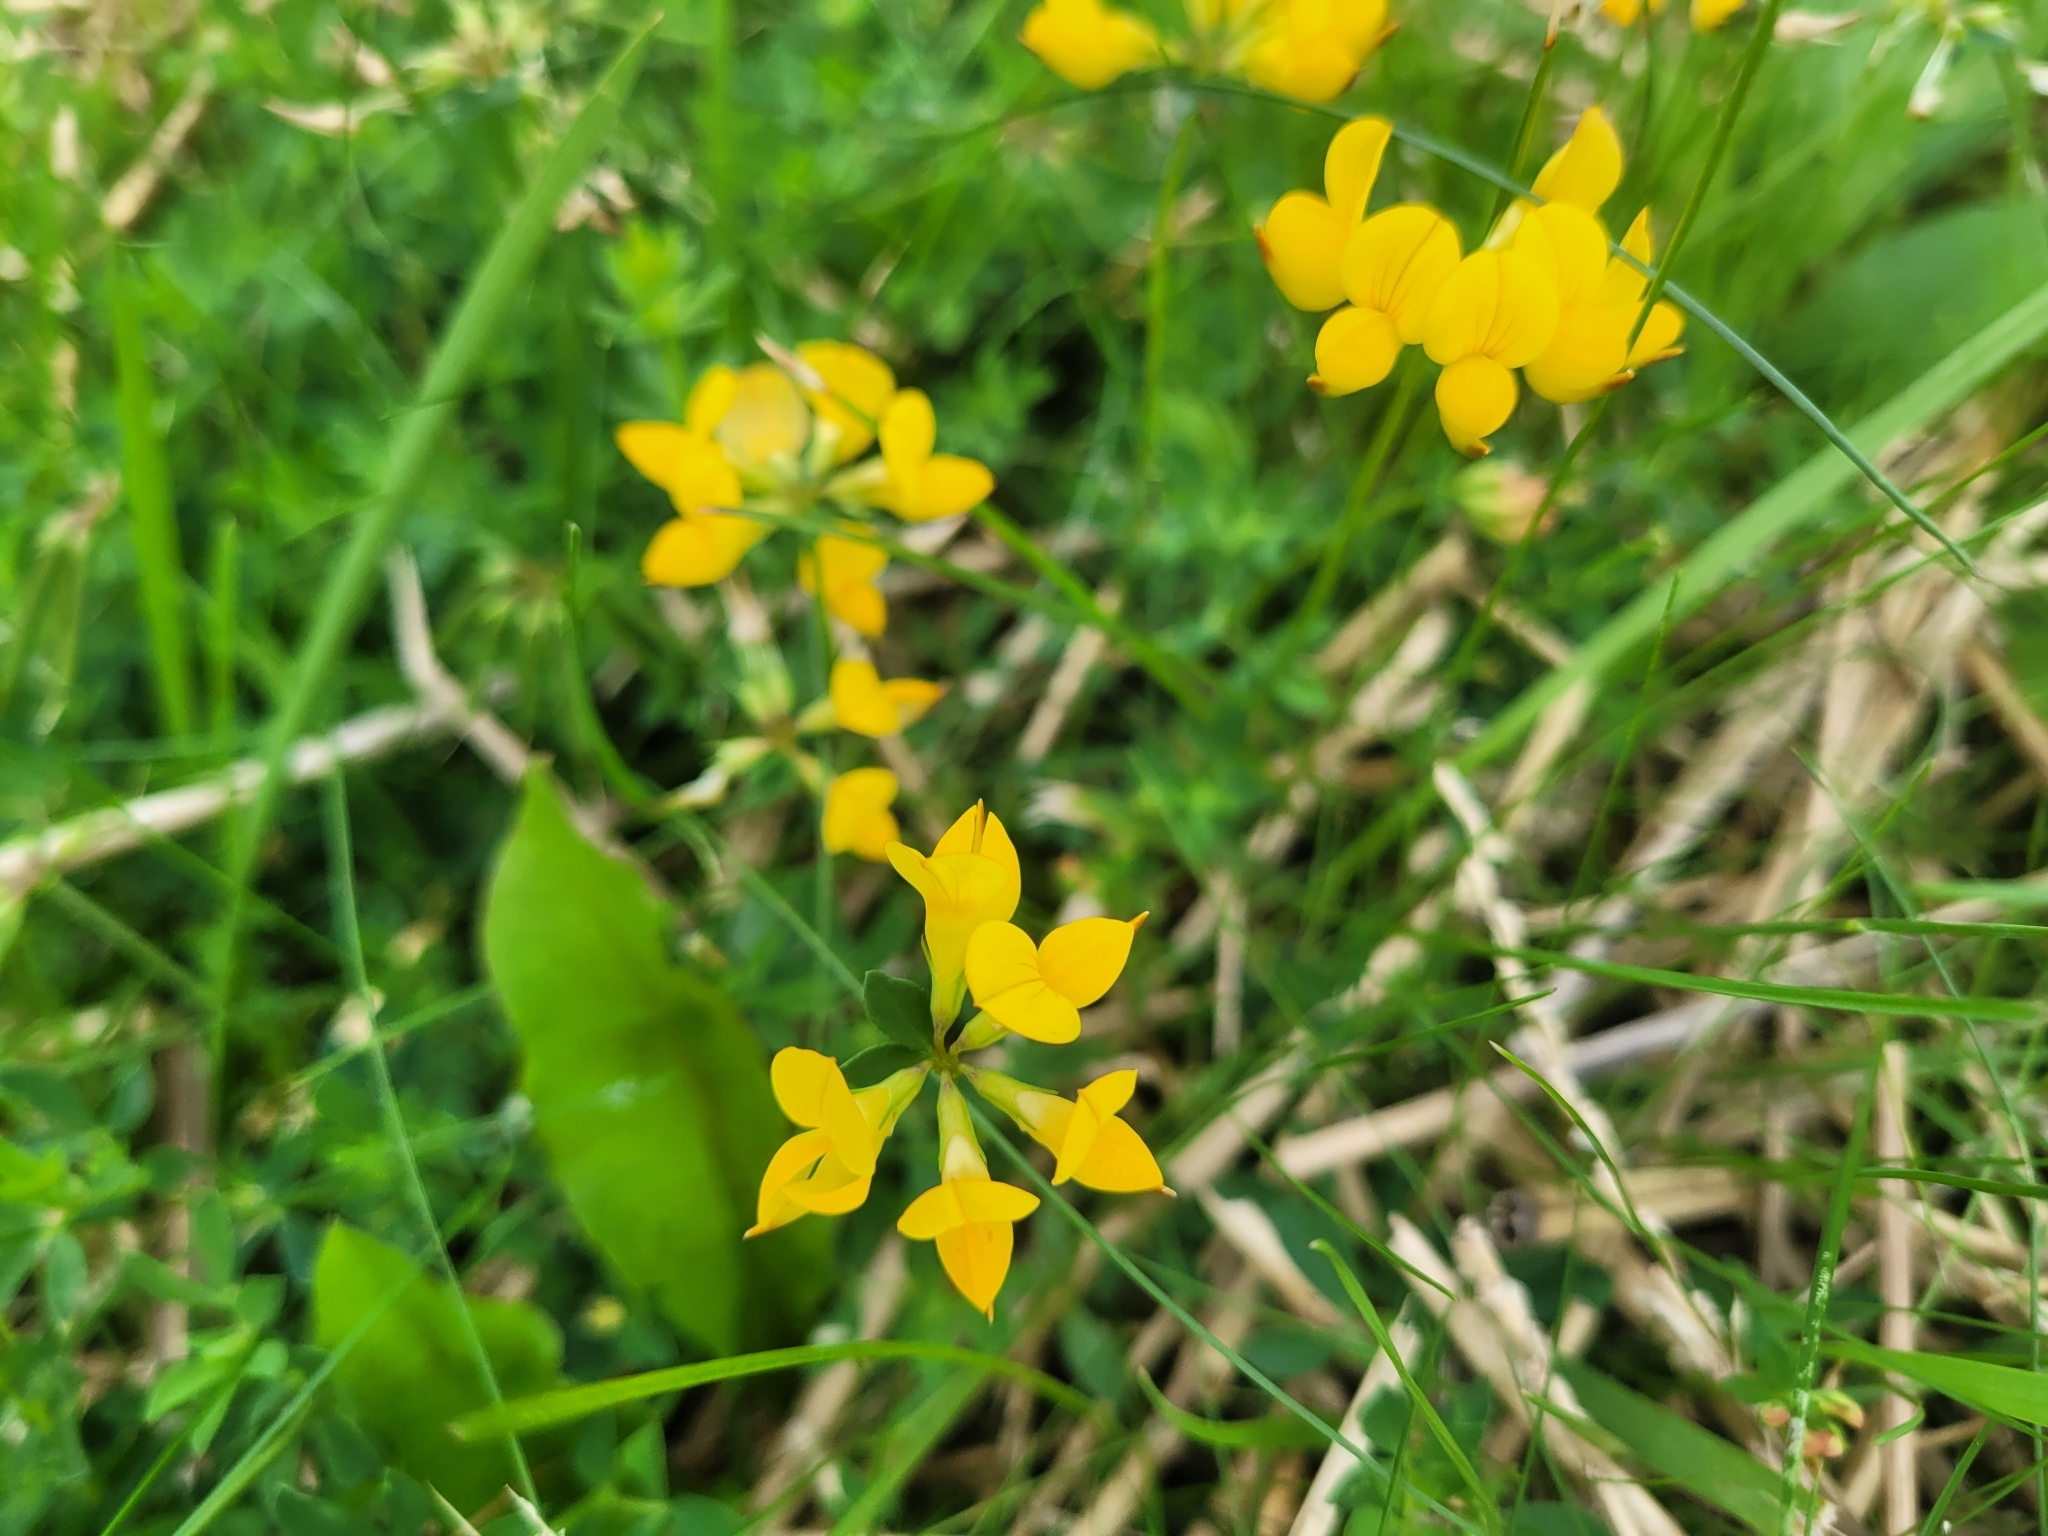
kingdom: Plantae
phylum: Tracheophyta
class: Magnoliopsida
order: Fabales
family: Fabaceae
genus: Lotus
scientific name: Lotus corniculatus
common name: Common bird's-foot-trefoil
